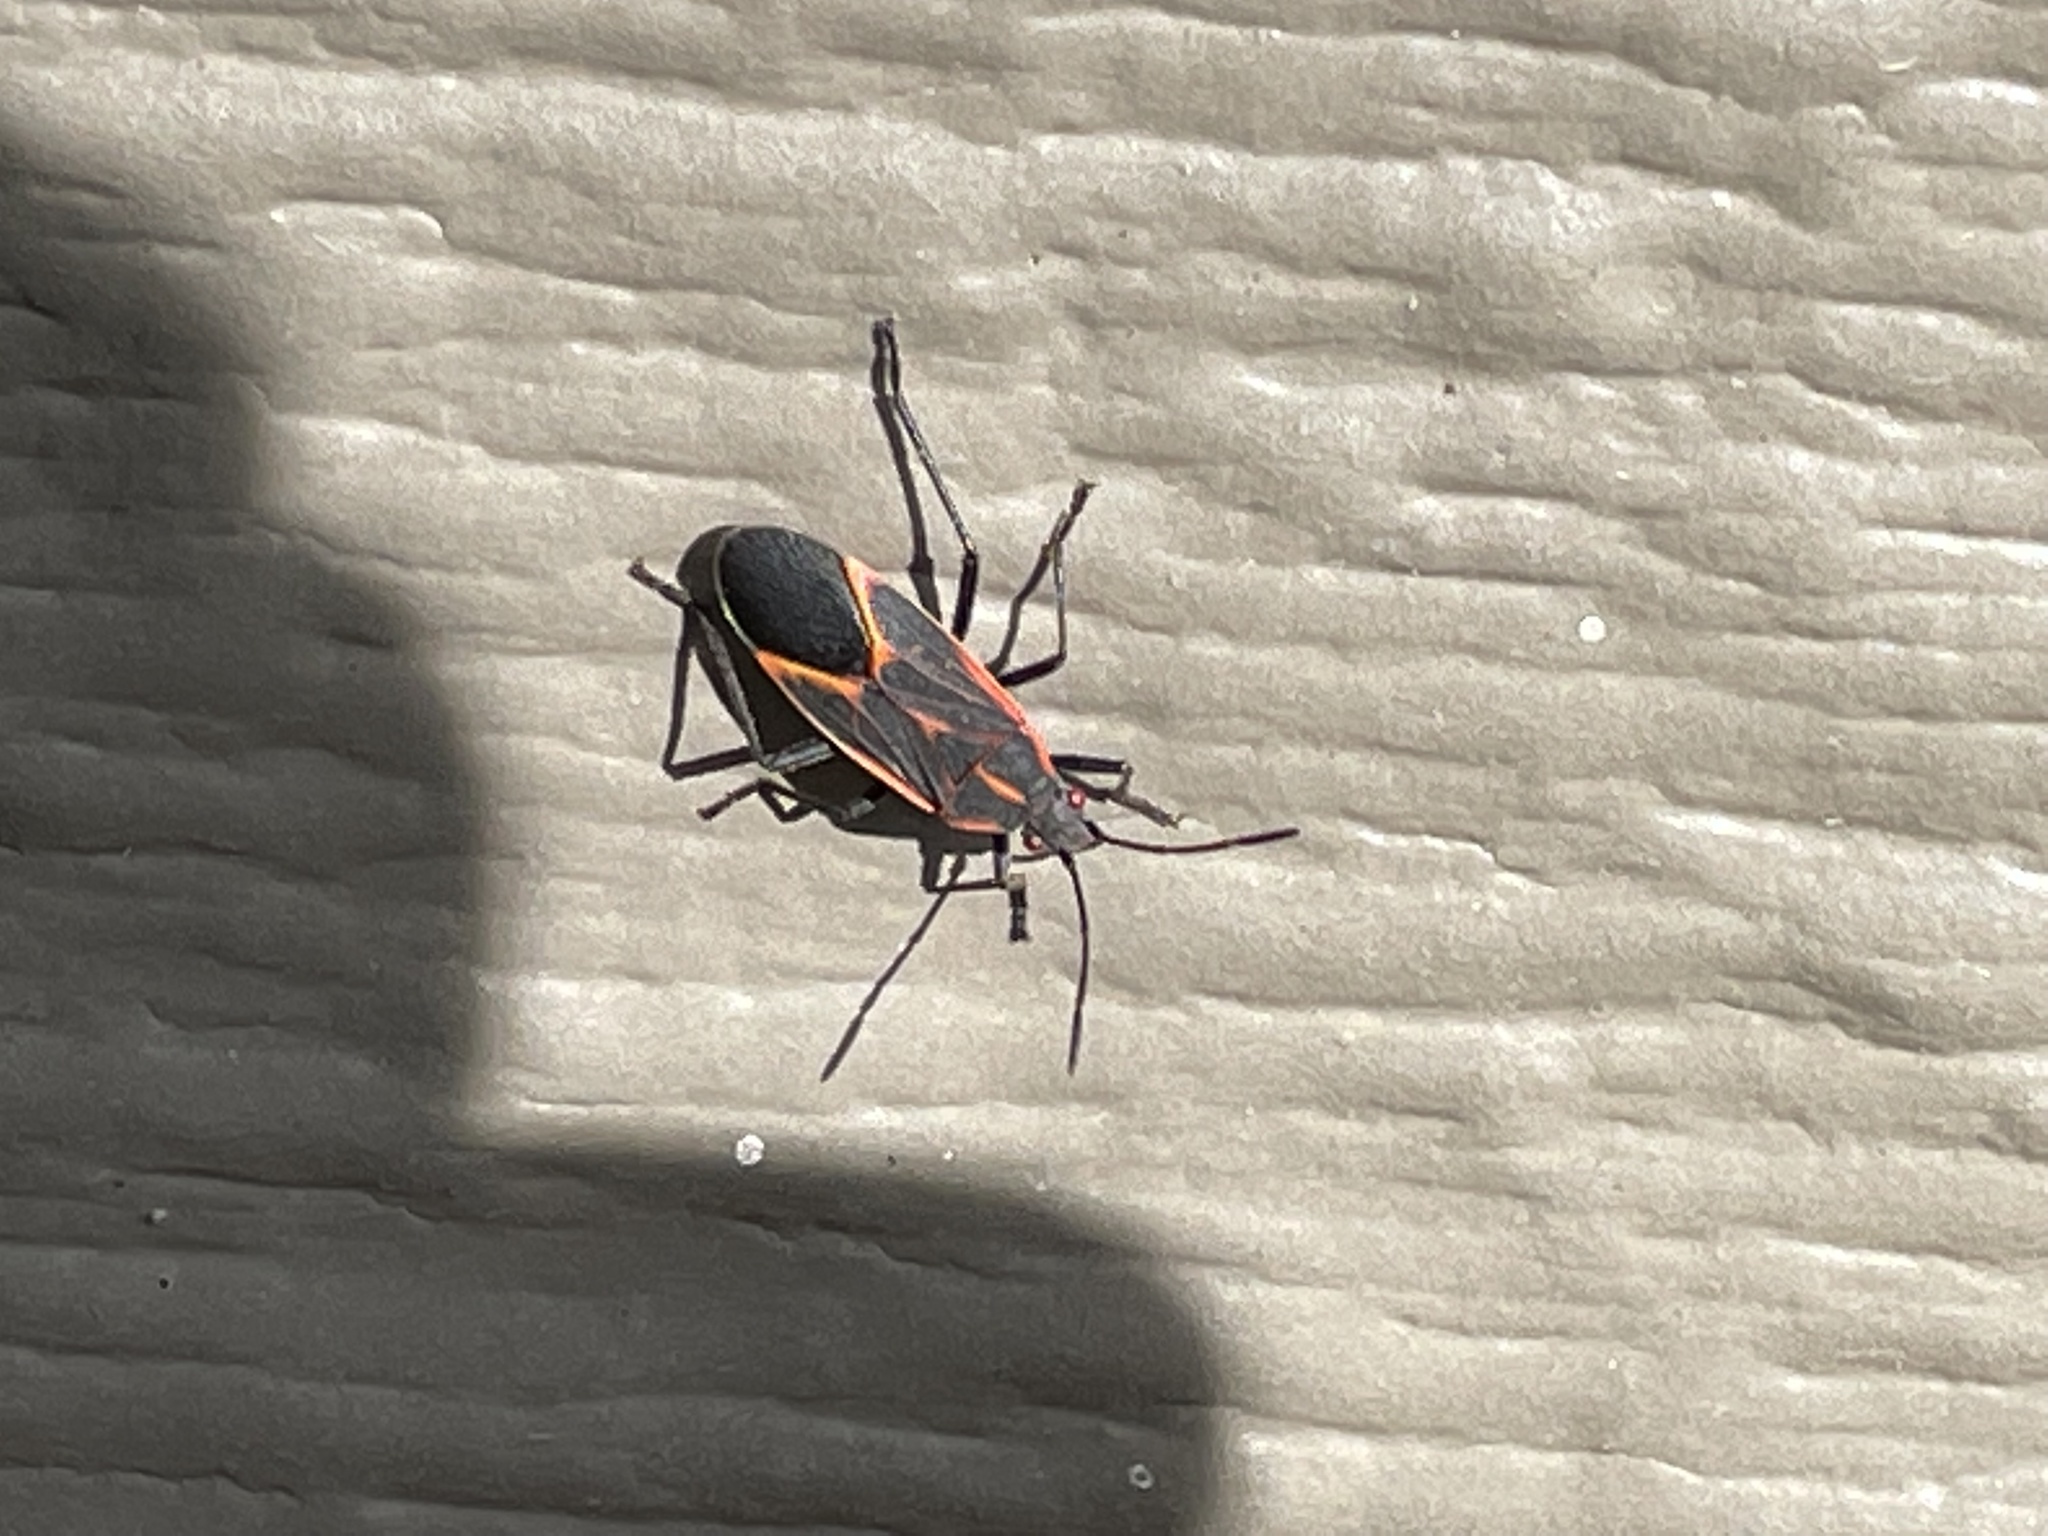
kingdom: Animalia
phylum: Arthropoda
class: Insecta
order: Hemiptera
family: Rhopalidae
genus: Boisea
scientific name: Boisea trivittata
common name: Boxelder bug
